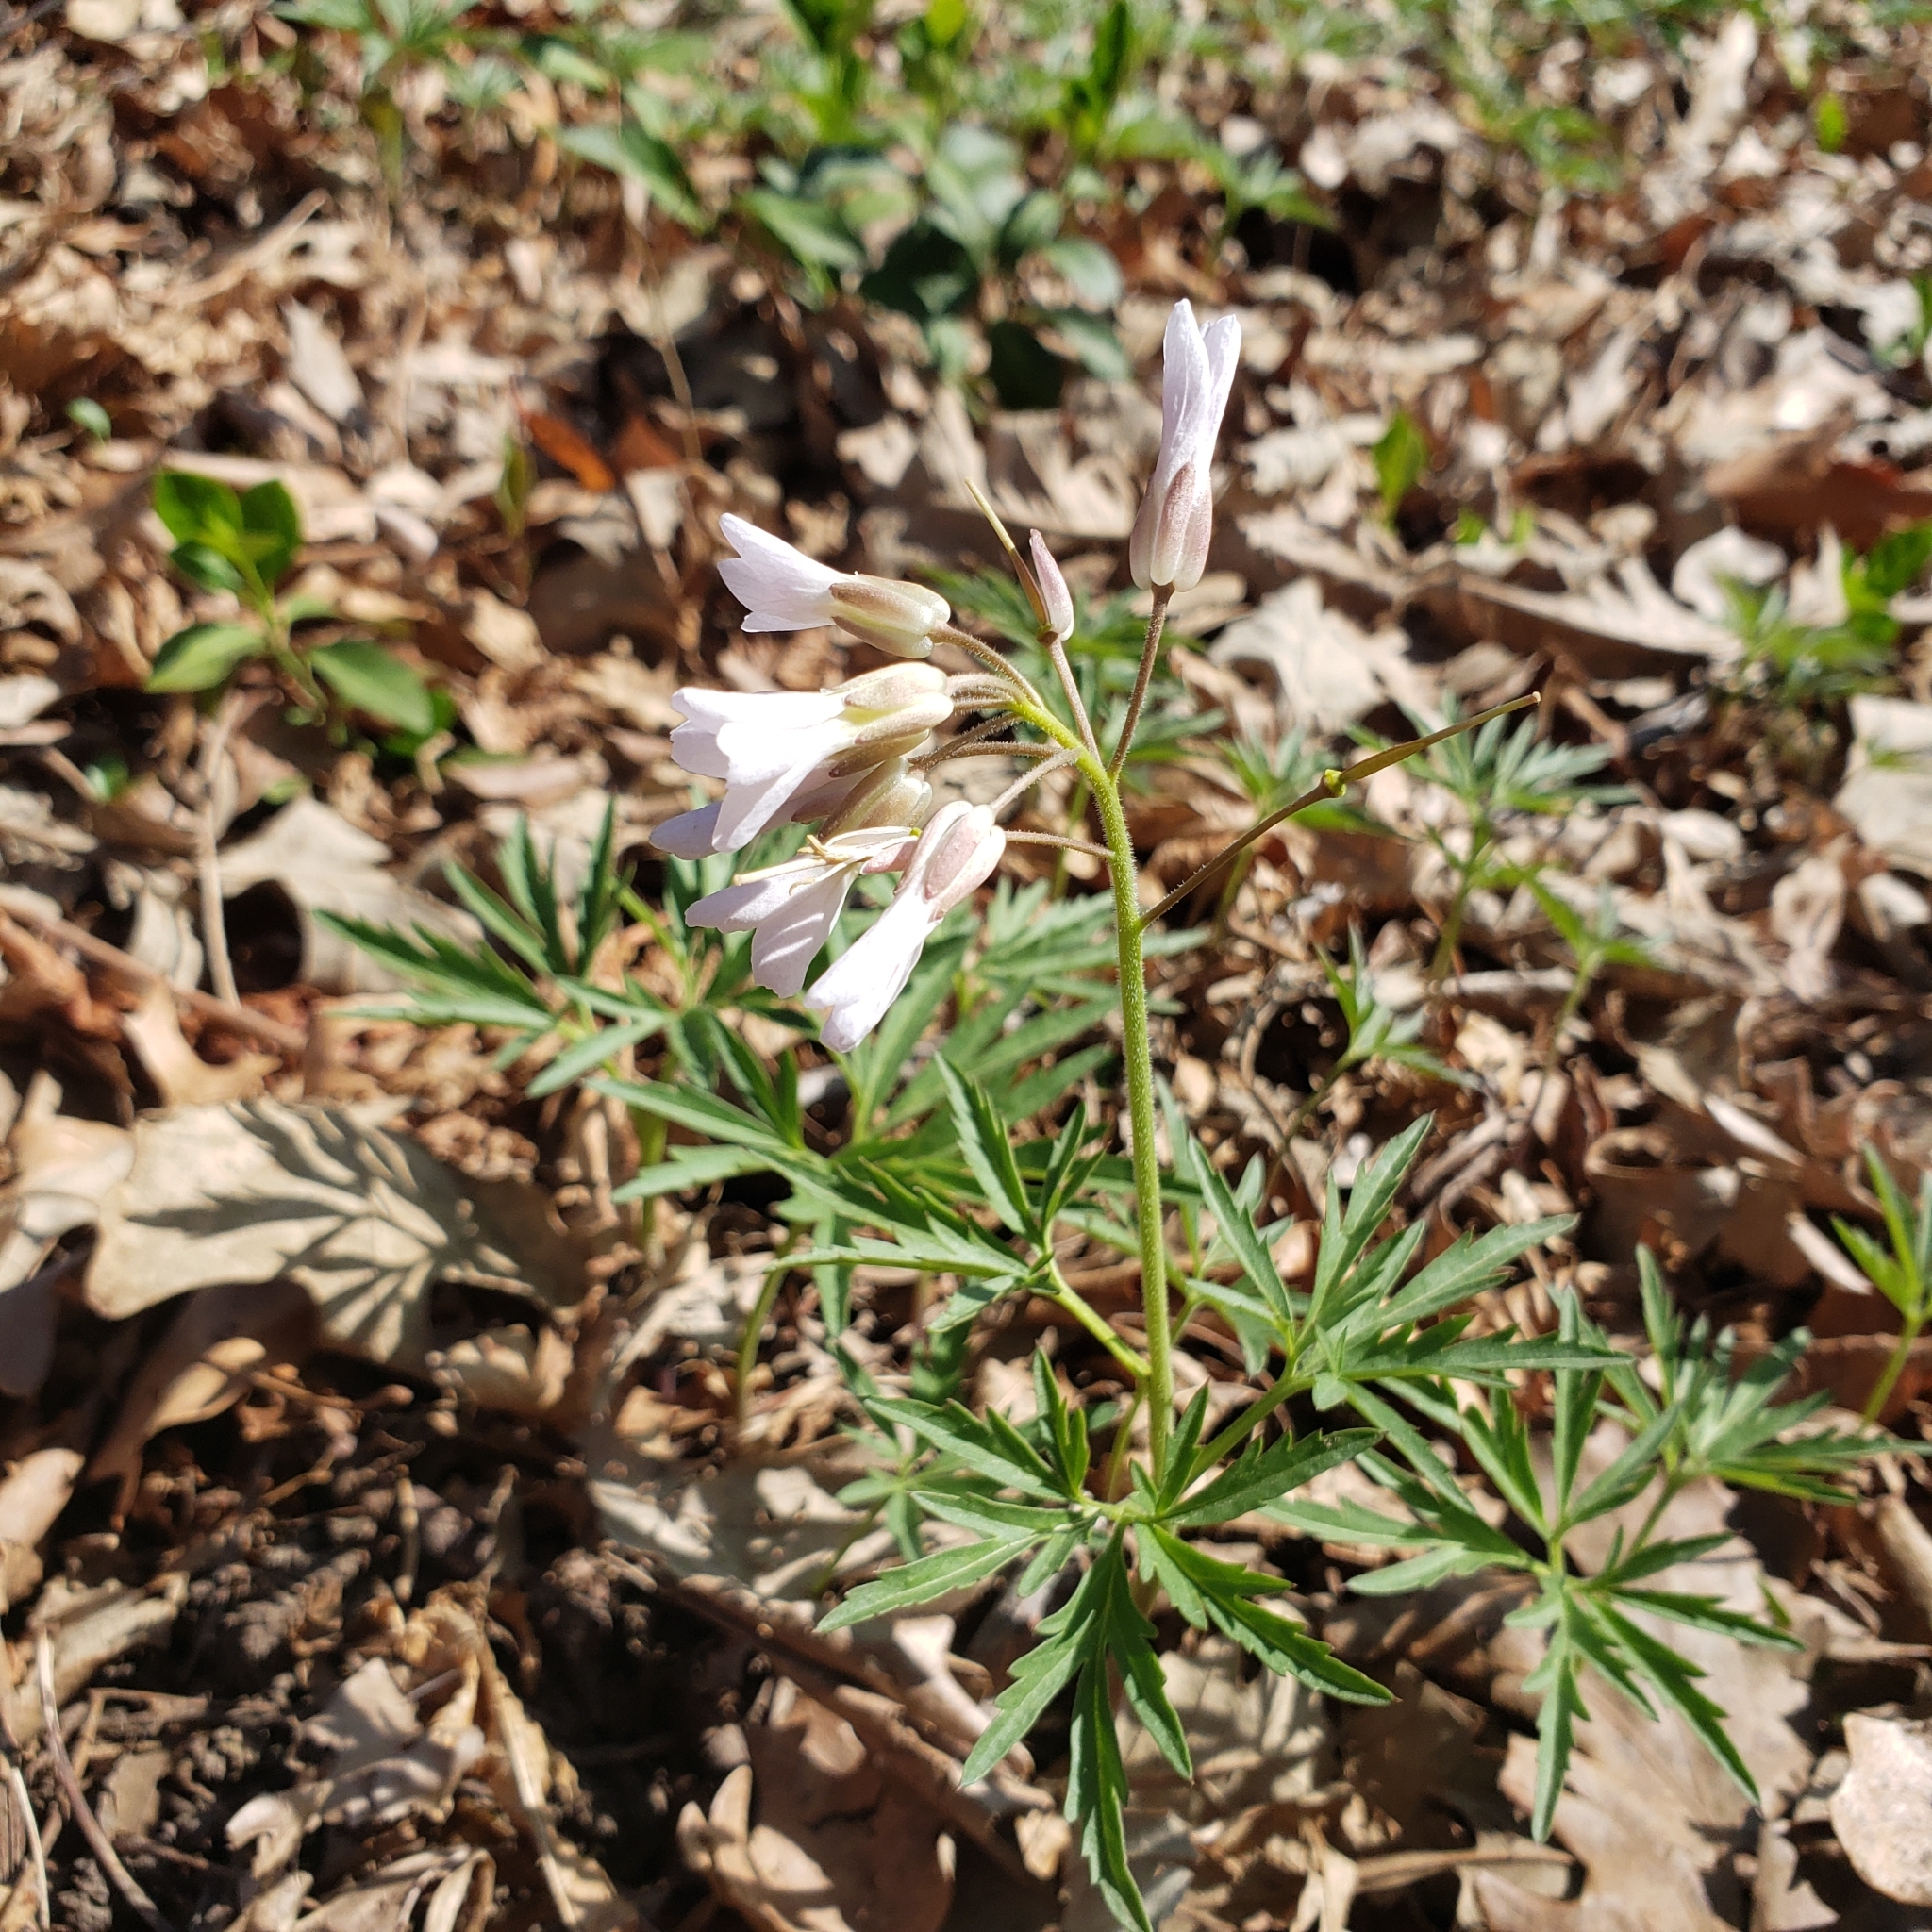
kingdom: Plantae
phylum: Tracheophyta
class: Magnoliopsida
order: Brassicales
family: Brassicaceae
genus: Cardamine
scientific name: Cardamine concatenata
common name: Cut-leaf toothcup
